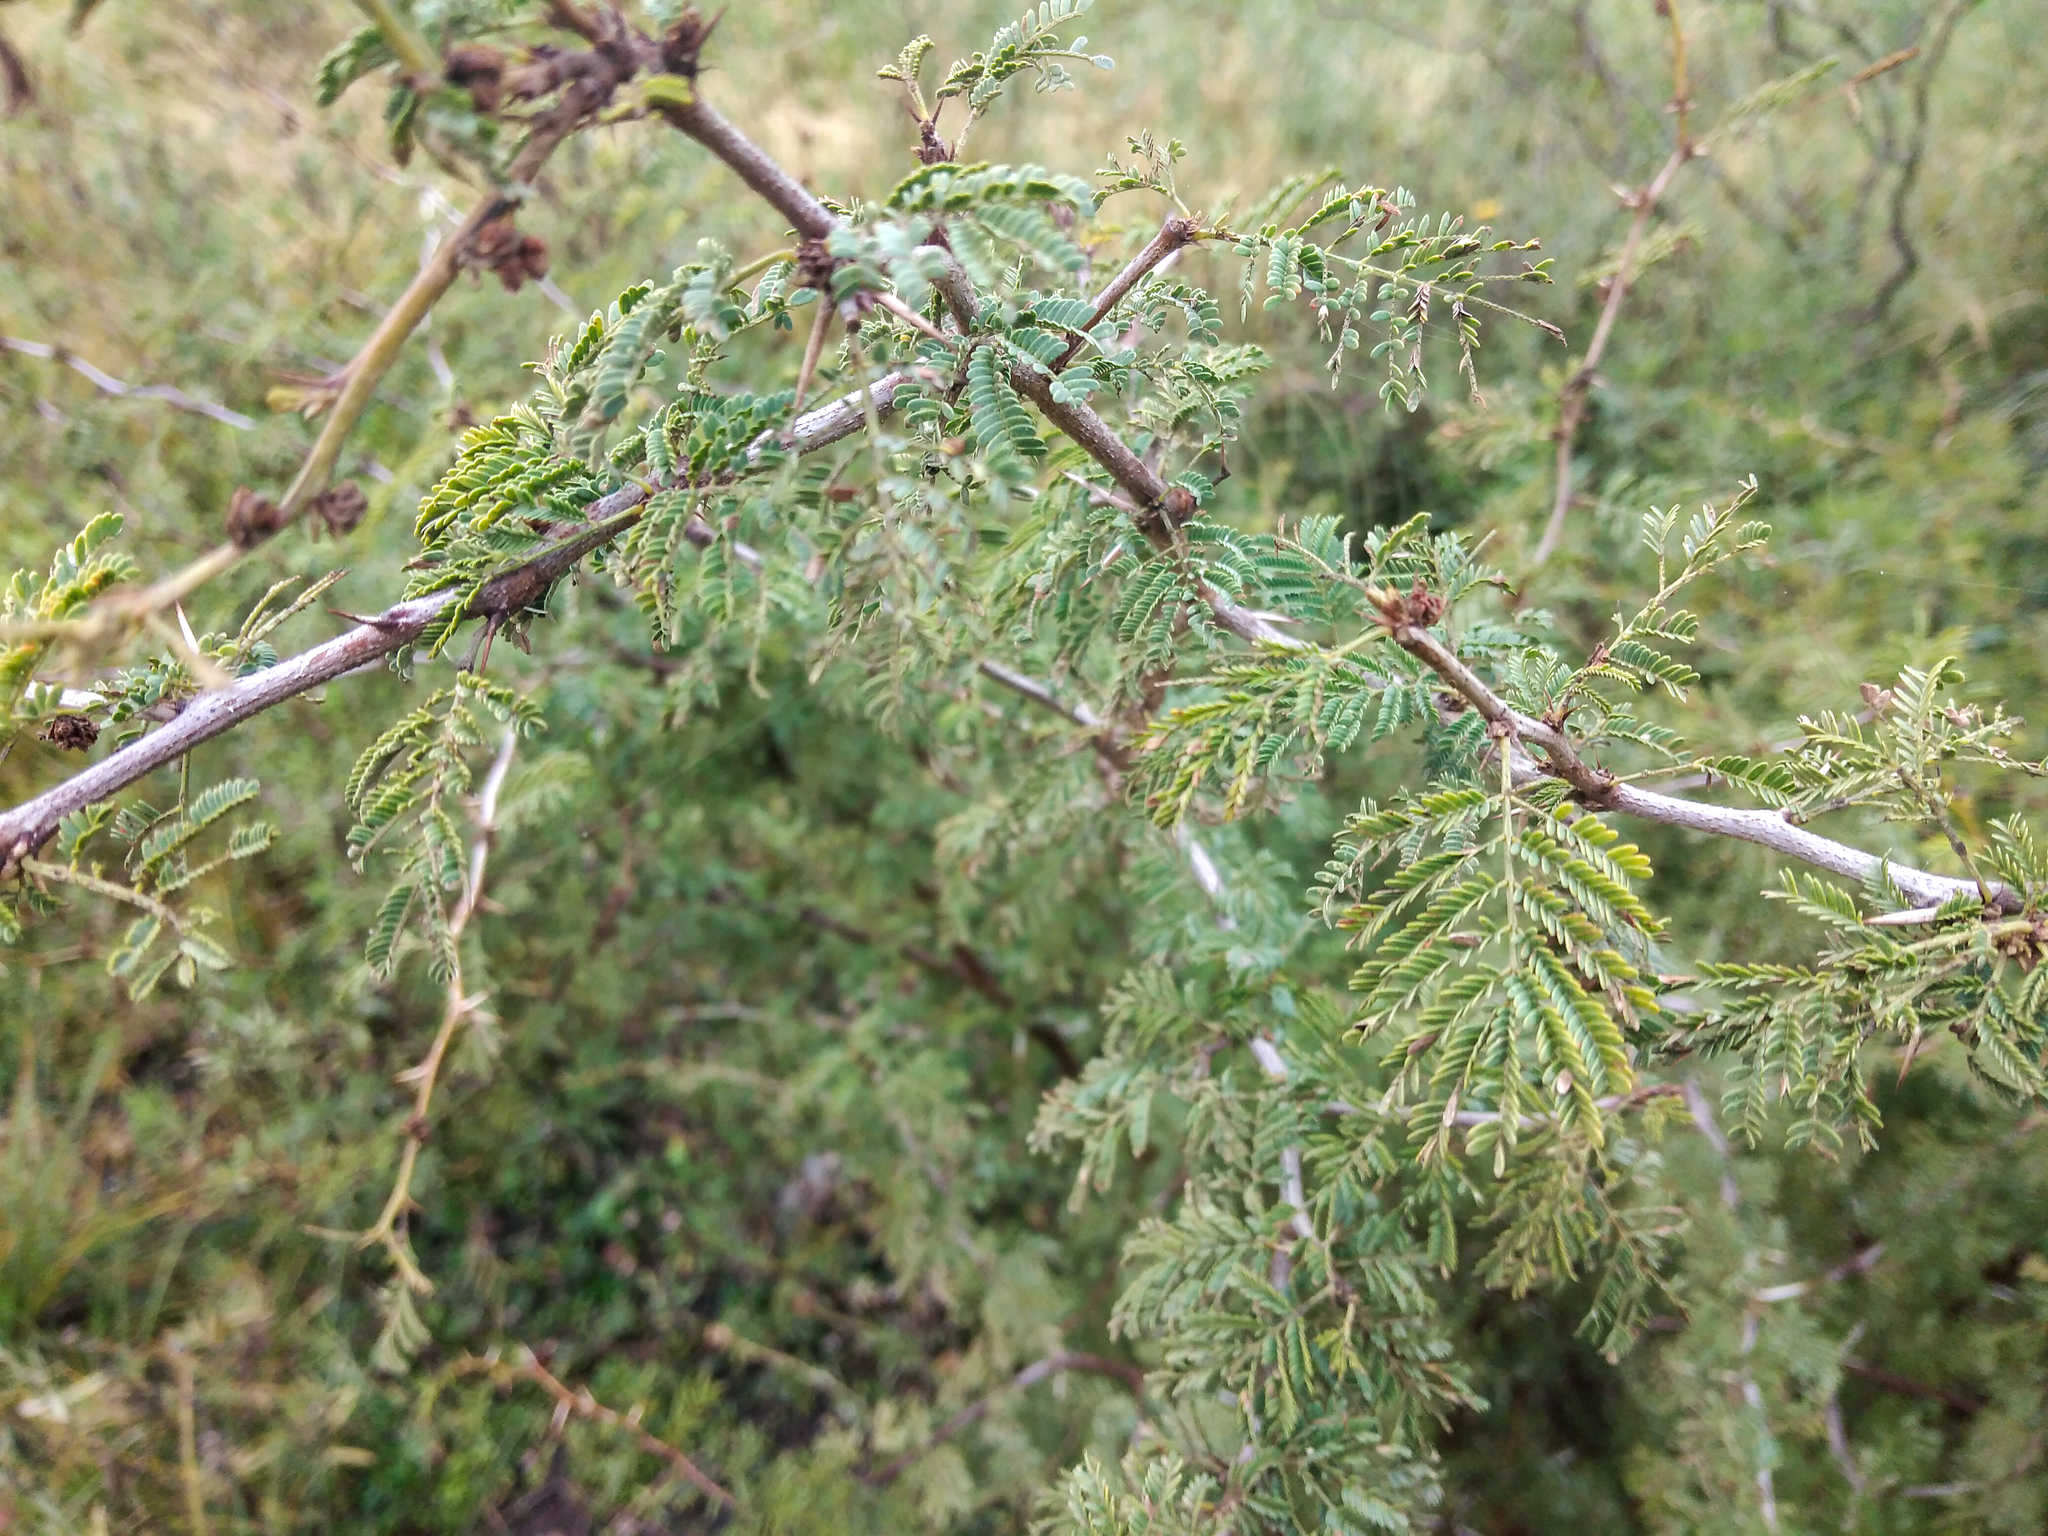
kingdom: Plantae
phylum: Tracheophyta
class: Magnoliopsida
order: Fabales
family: Fabaceae
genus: Vachellia
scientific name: Vachellia caven
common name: Roman cassie
